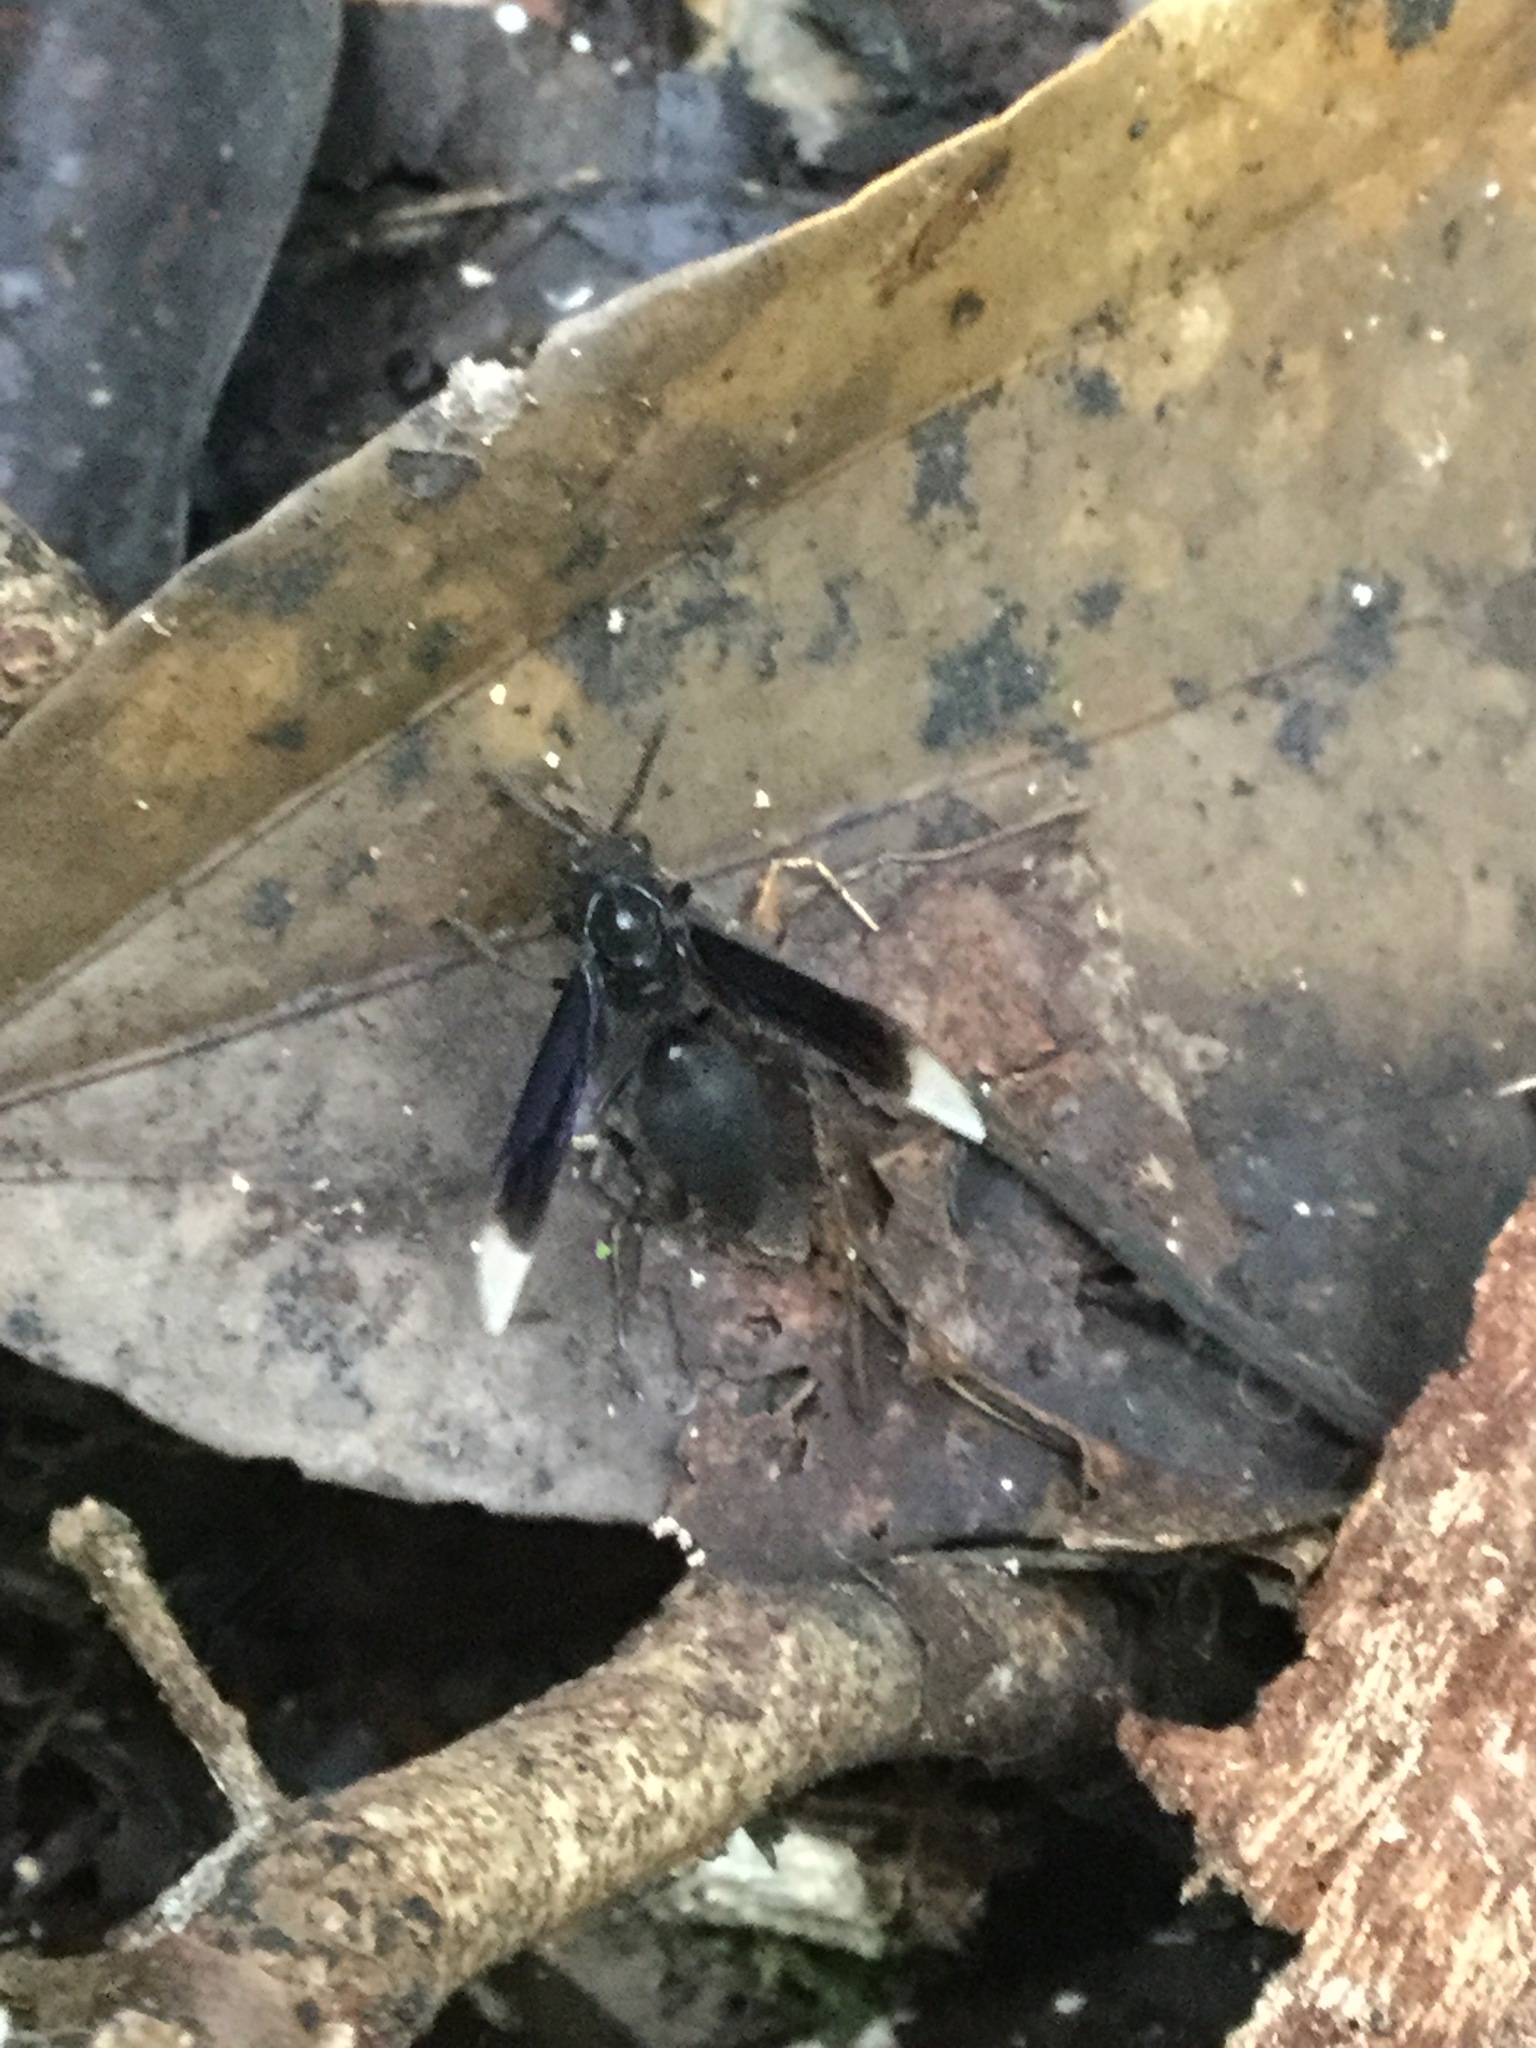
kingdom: Animalia
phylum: Arthropoda
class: Insecta
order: Hymenoptera
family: Vespidae
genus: Parachartergus
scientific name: Parachartergus apicalis
